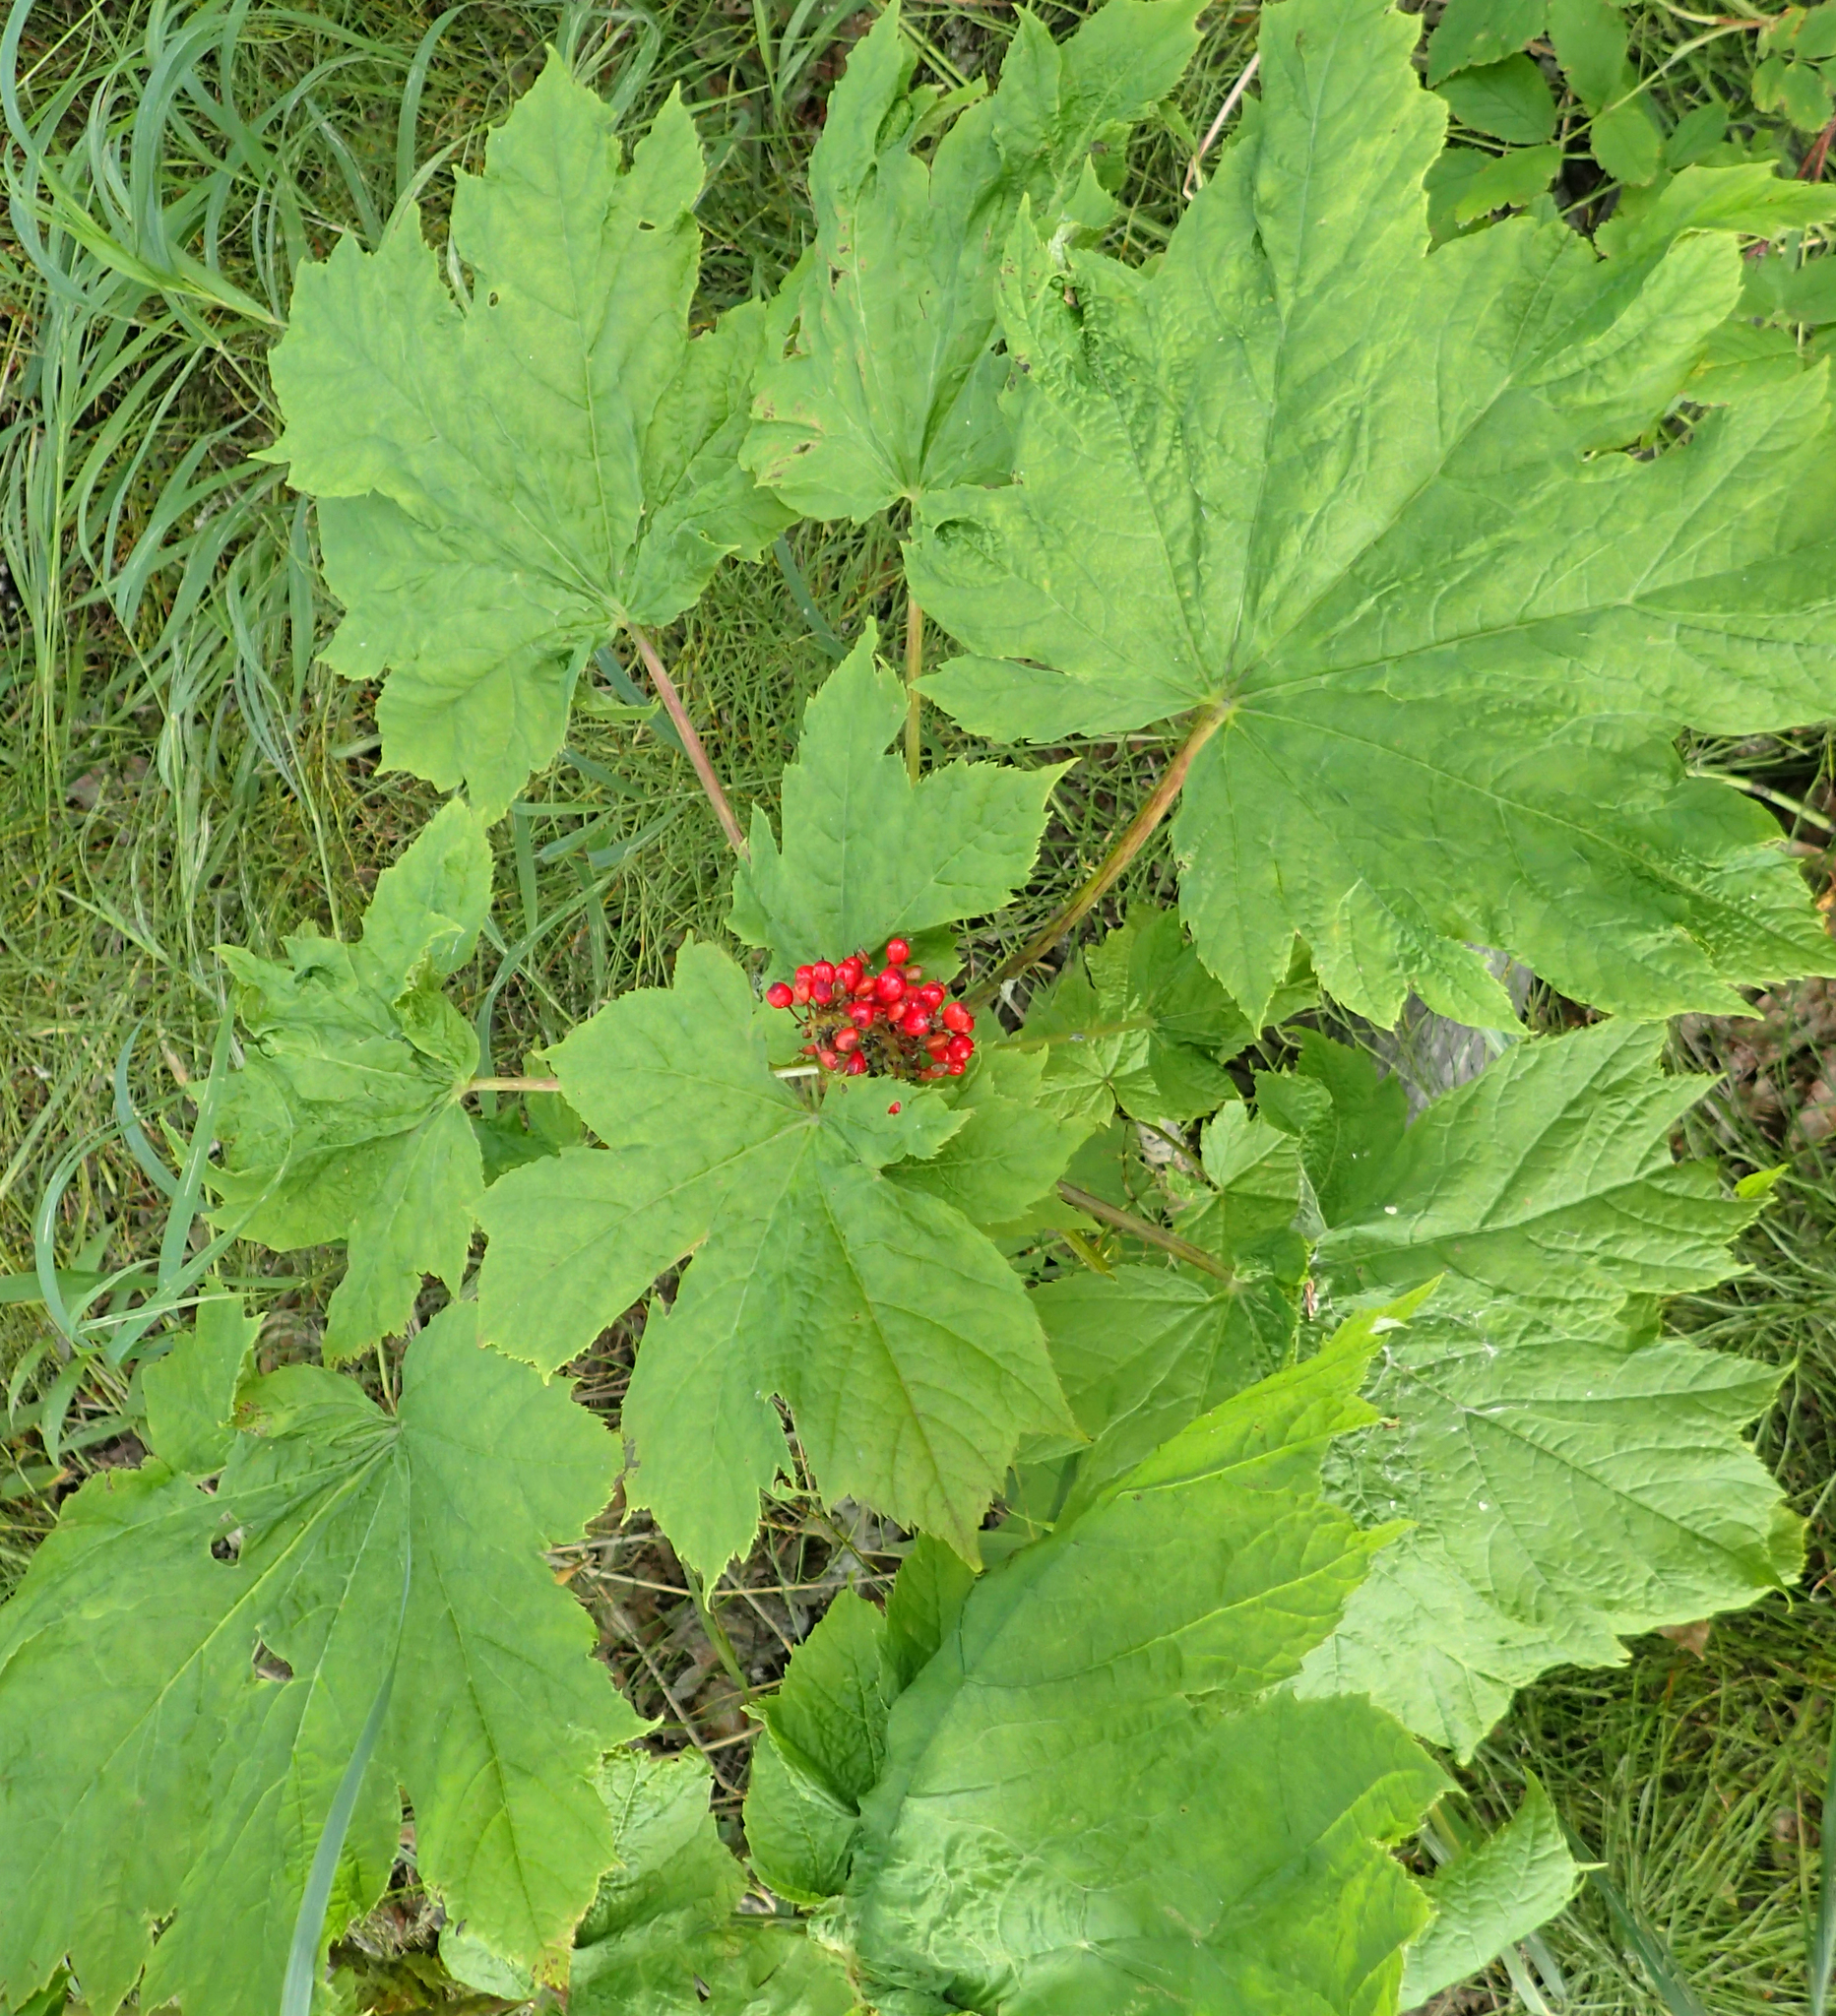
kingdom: Plantae
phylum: Tracheophyta
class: Magnoliopsida
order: Apiales
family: Araliaceae
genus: Oplopanax
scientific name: Oplopanax horridus
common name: Devil's walking-stick
